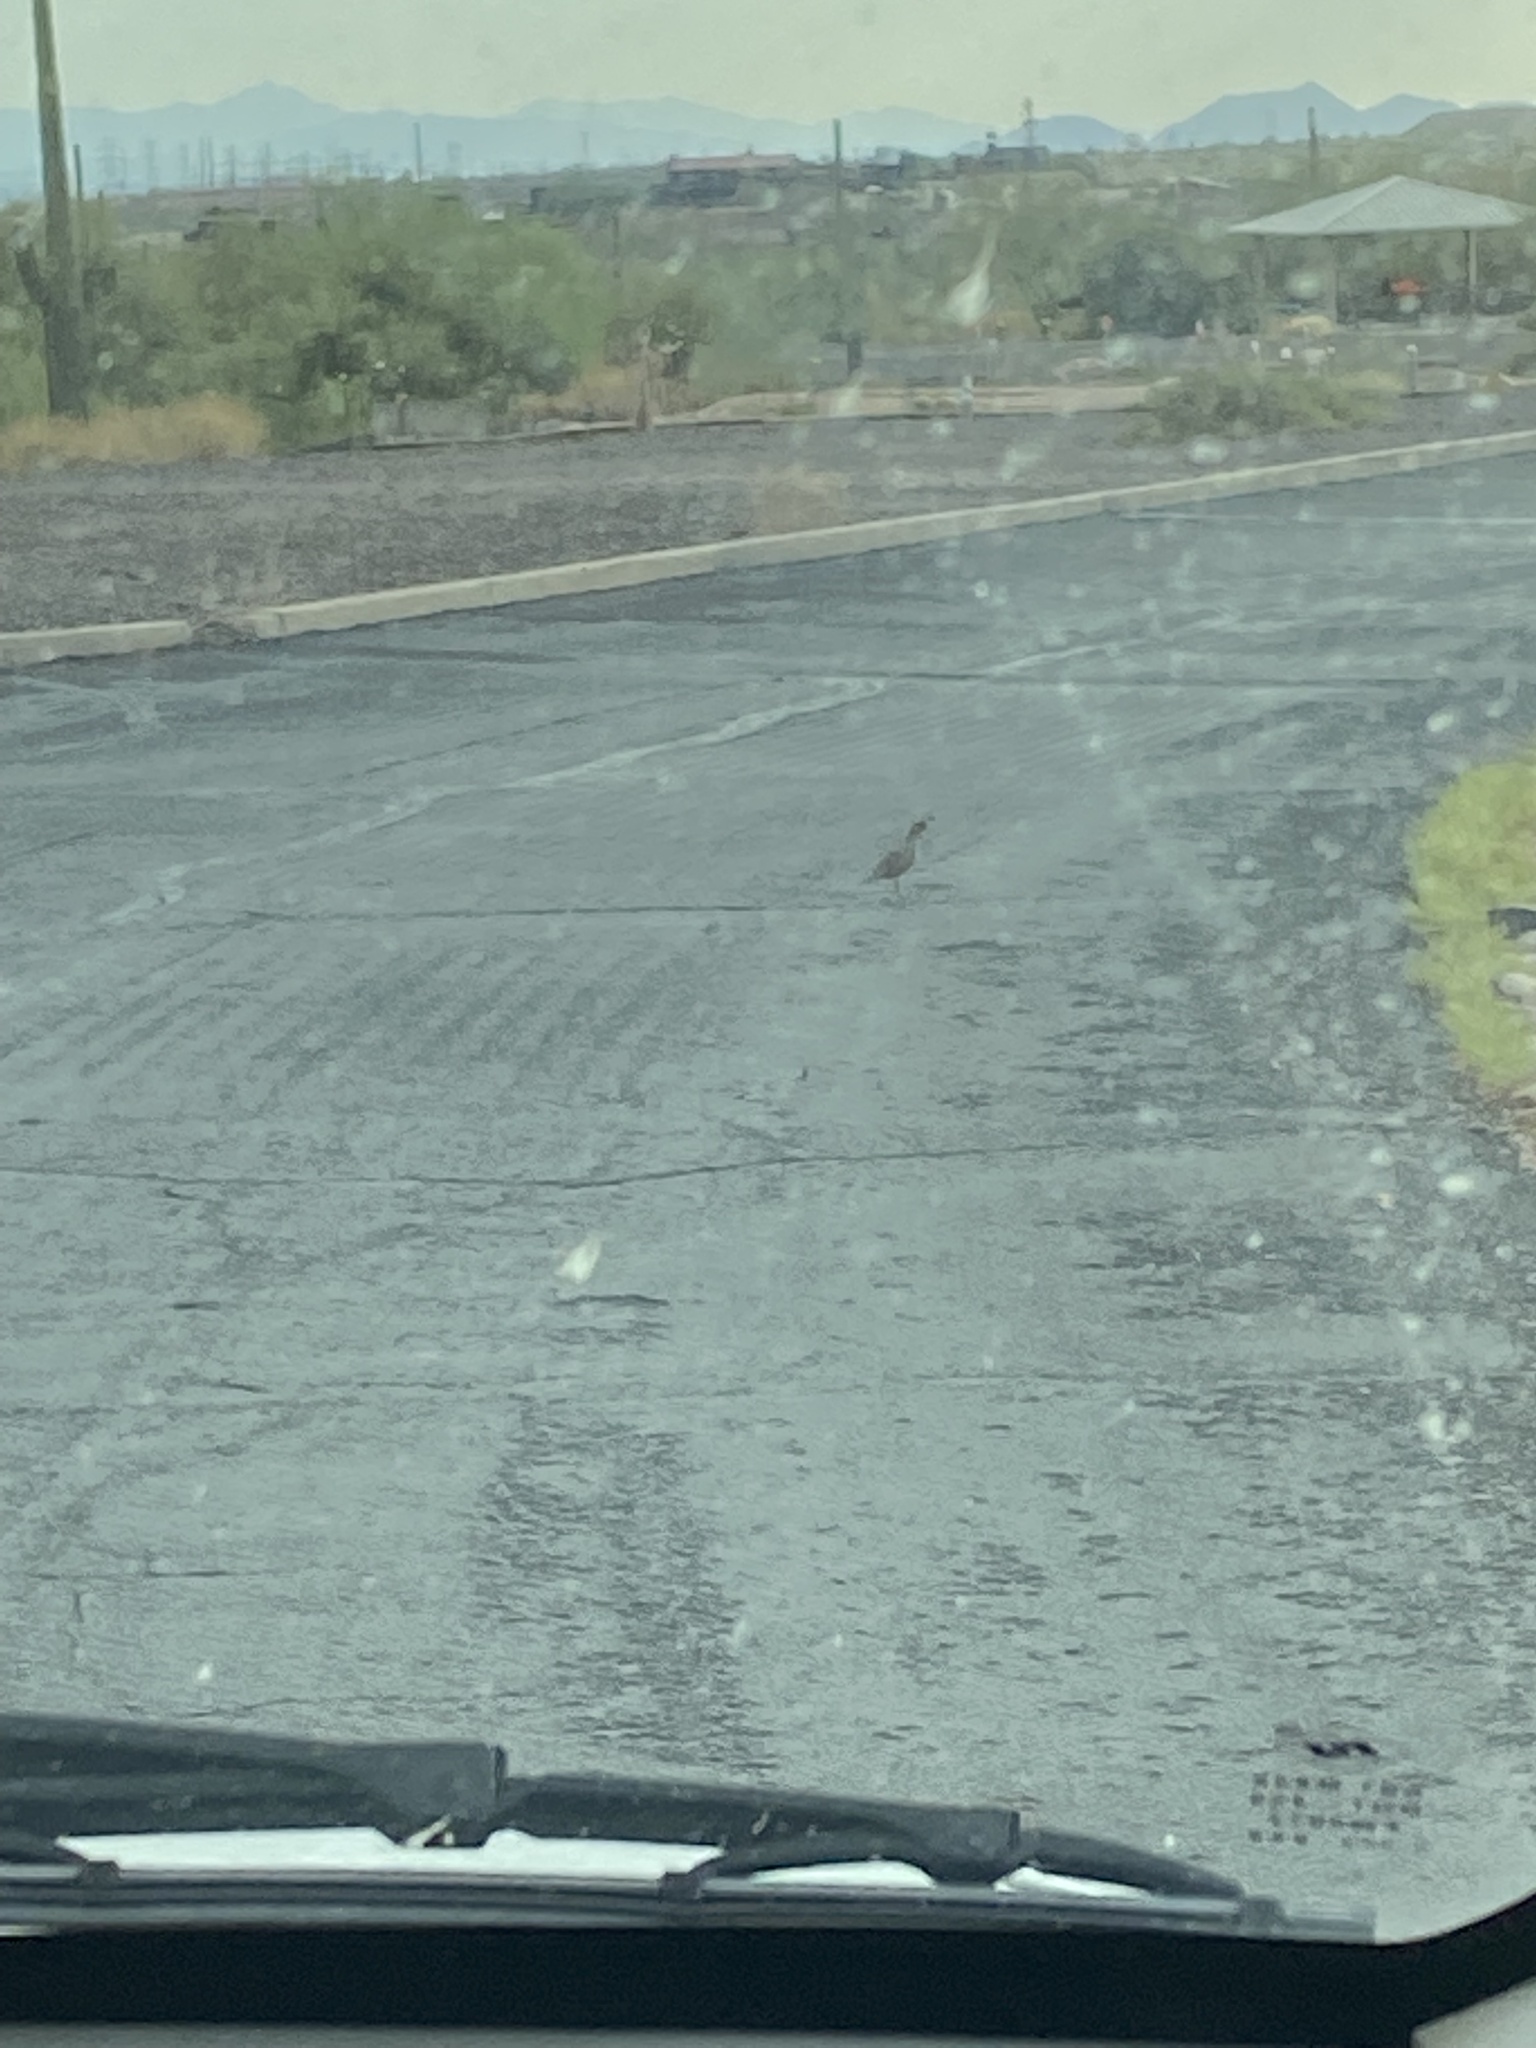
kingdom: Animalia
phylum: Chordata
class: Aves
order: Galliformes
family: Odontophoridae
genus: Callipepla
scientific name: Callipepla gambelii
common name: Gambel's quail
